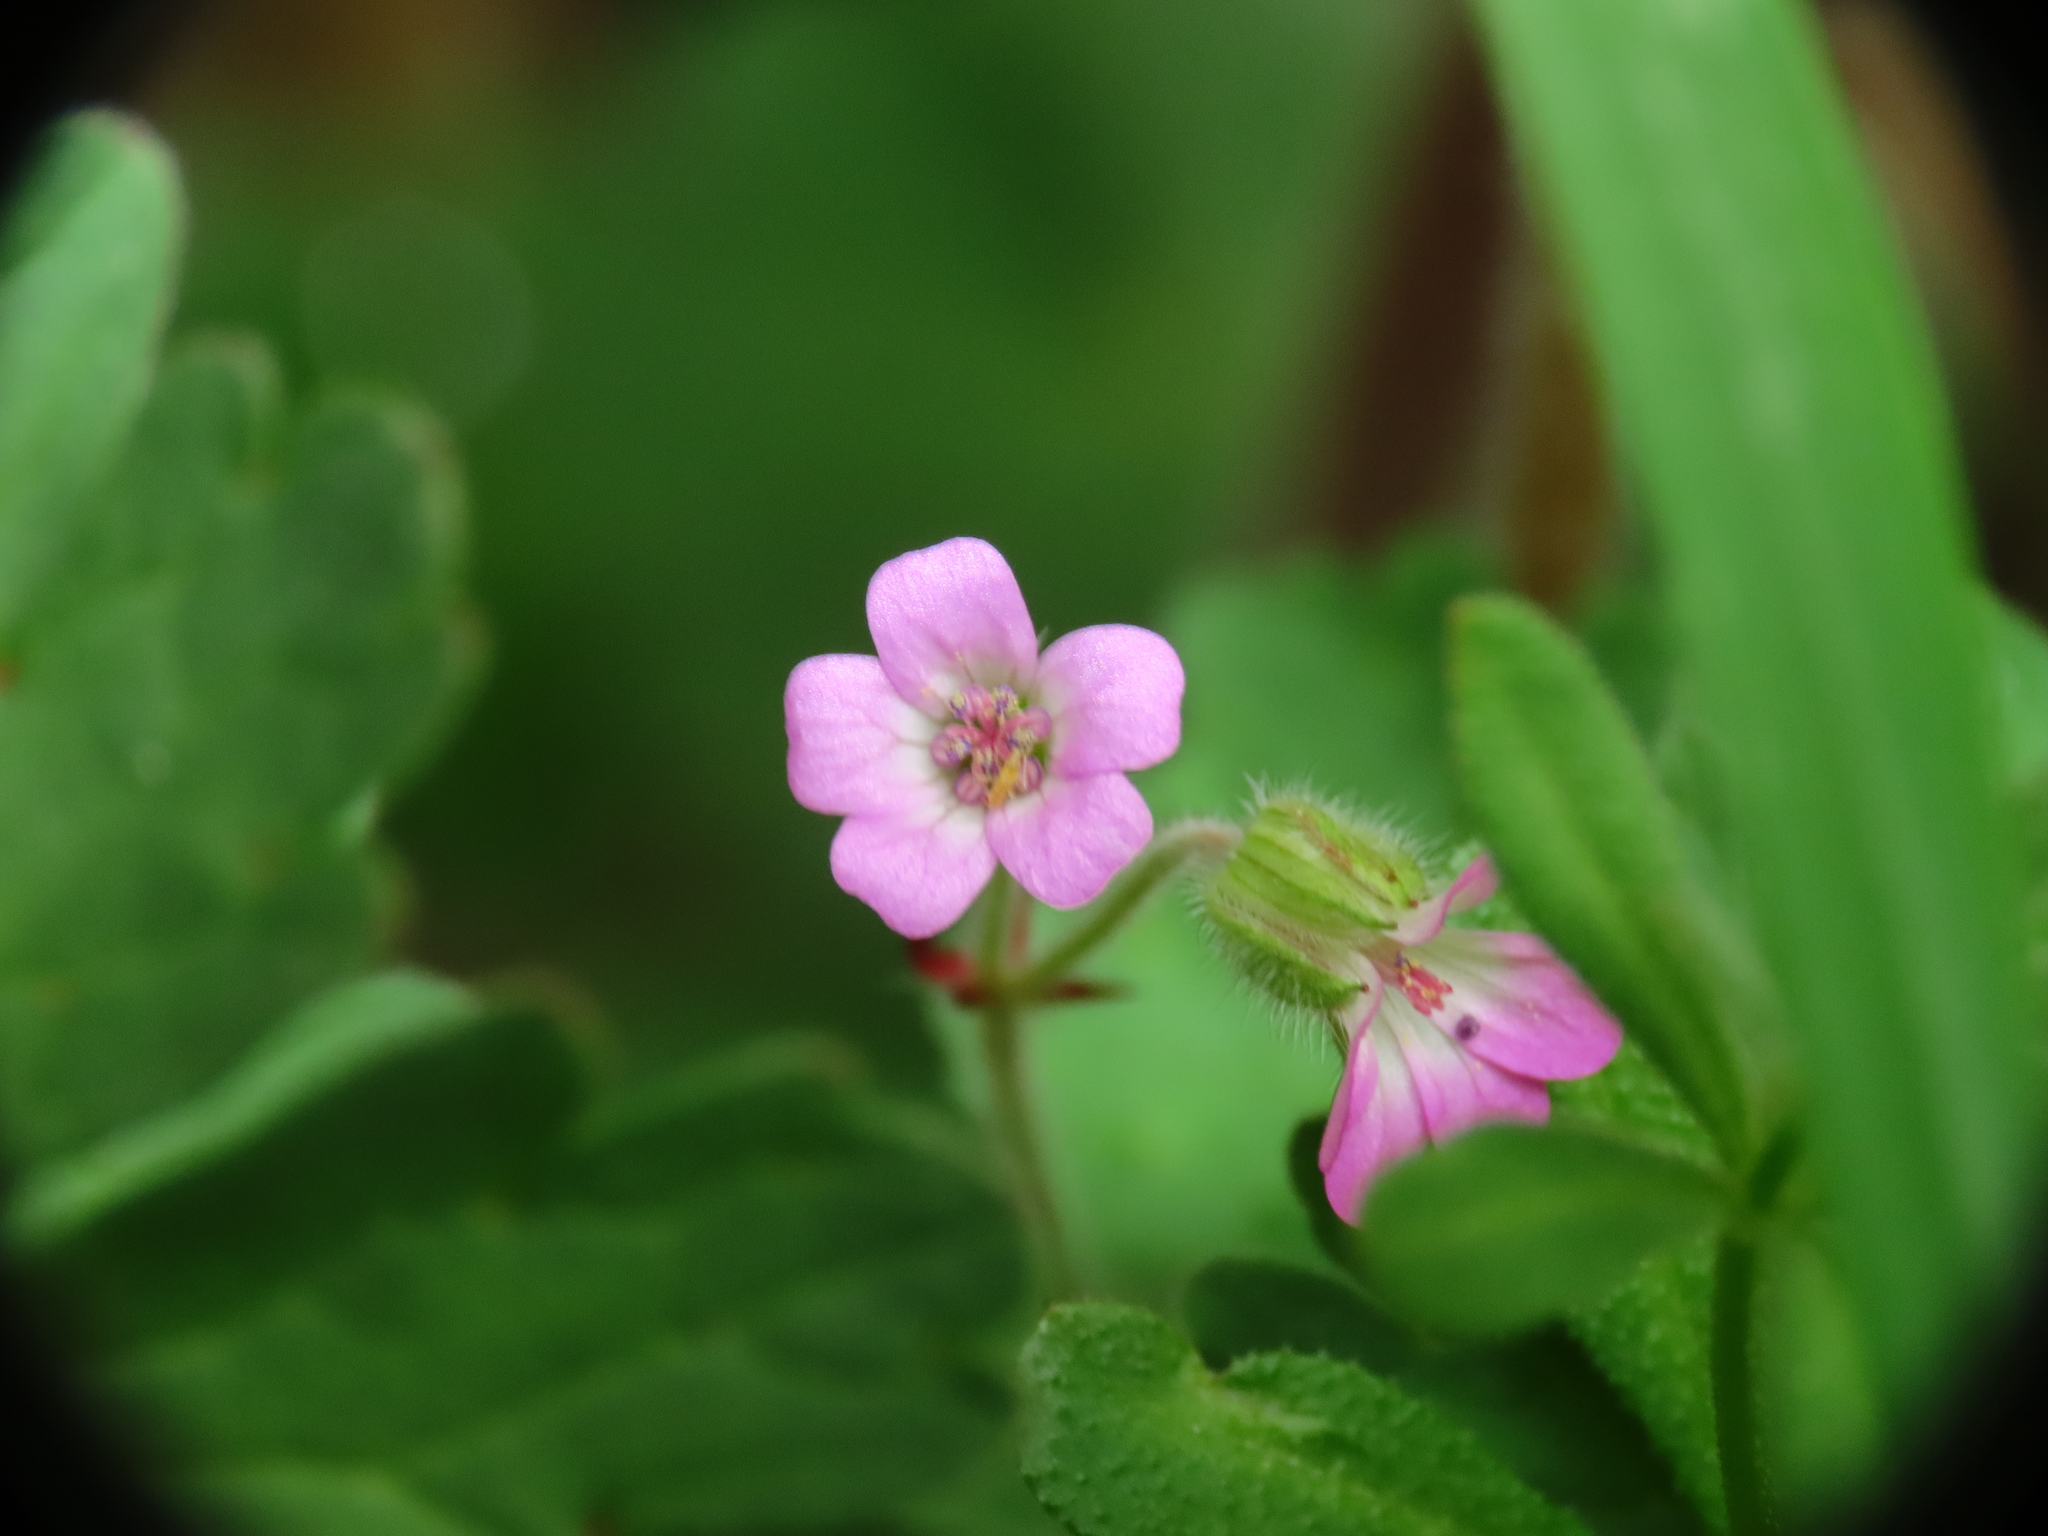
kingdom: Plantae
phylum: Tracheophyta
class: Magnoliopsida
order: Geraniales
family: Geraniaceae
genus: Geranium
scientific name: Geranium rotundifolium
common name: Round-leaved crane's-bill
